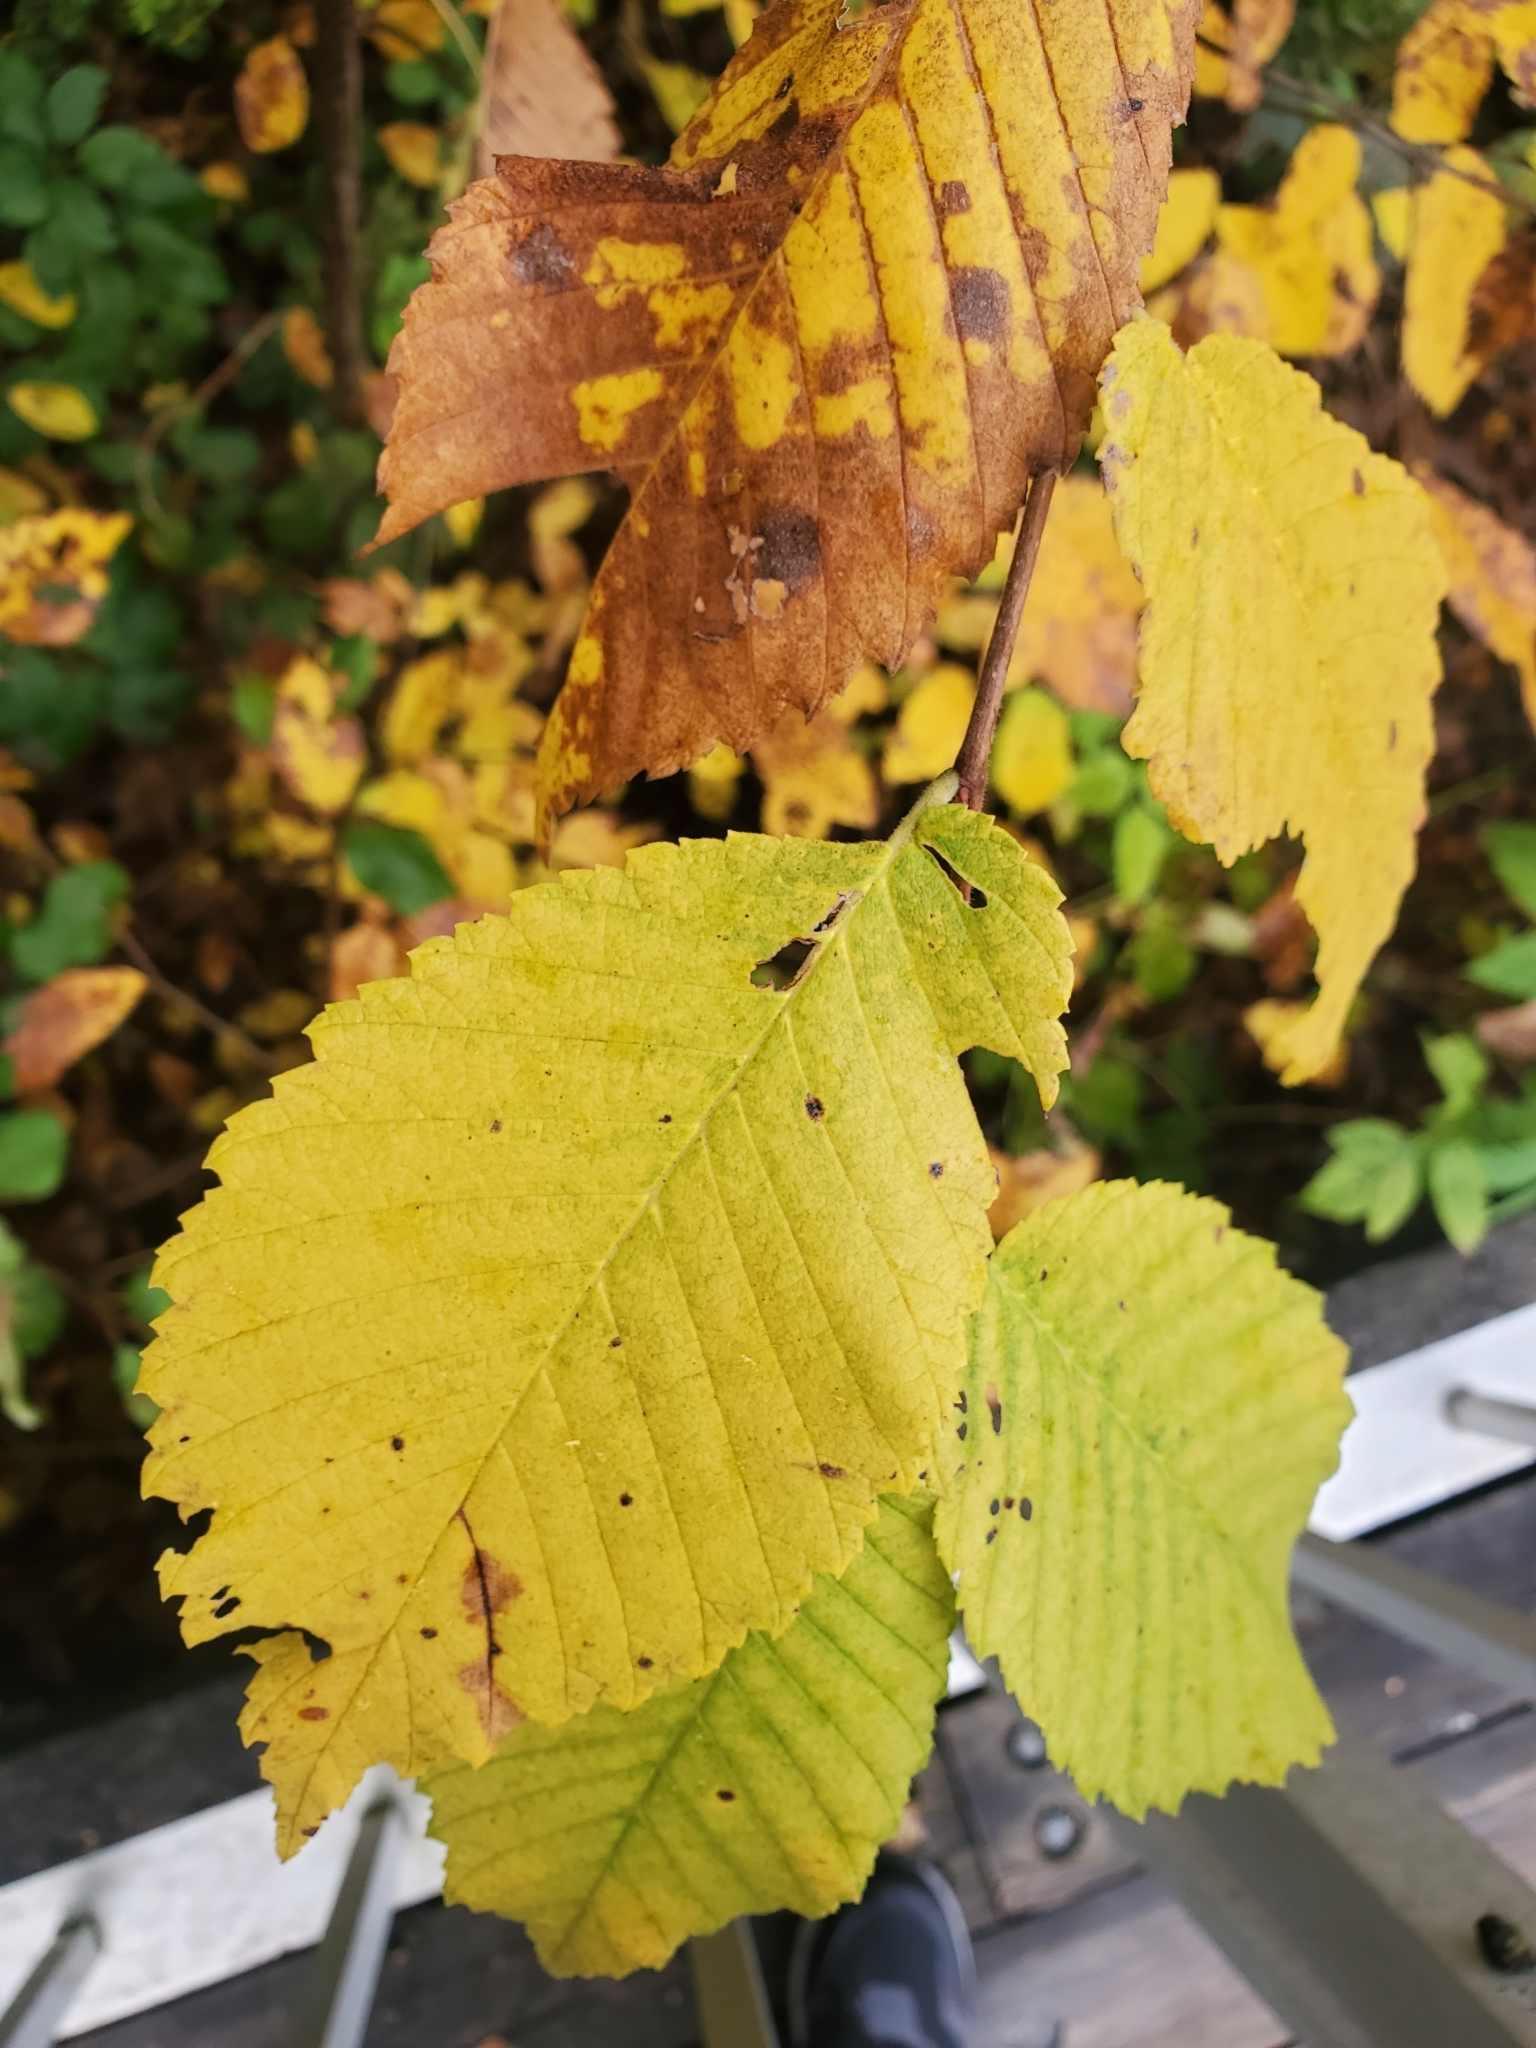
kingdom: Plantae
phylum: Tracheophyta
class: Magnoliopsida
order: Rosales
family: Ulmaceae
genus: Ulmus
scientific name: Ulmus americana
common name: American elm
